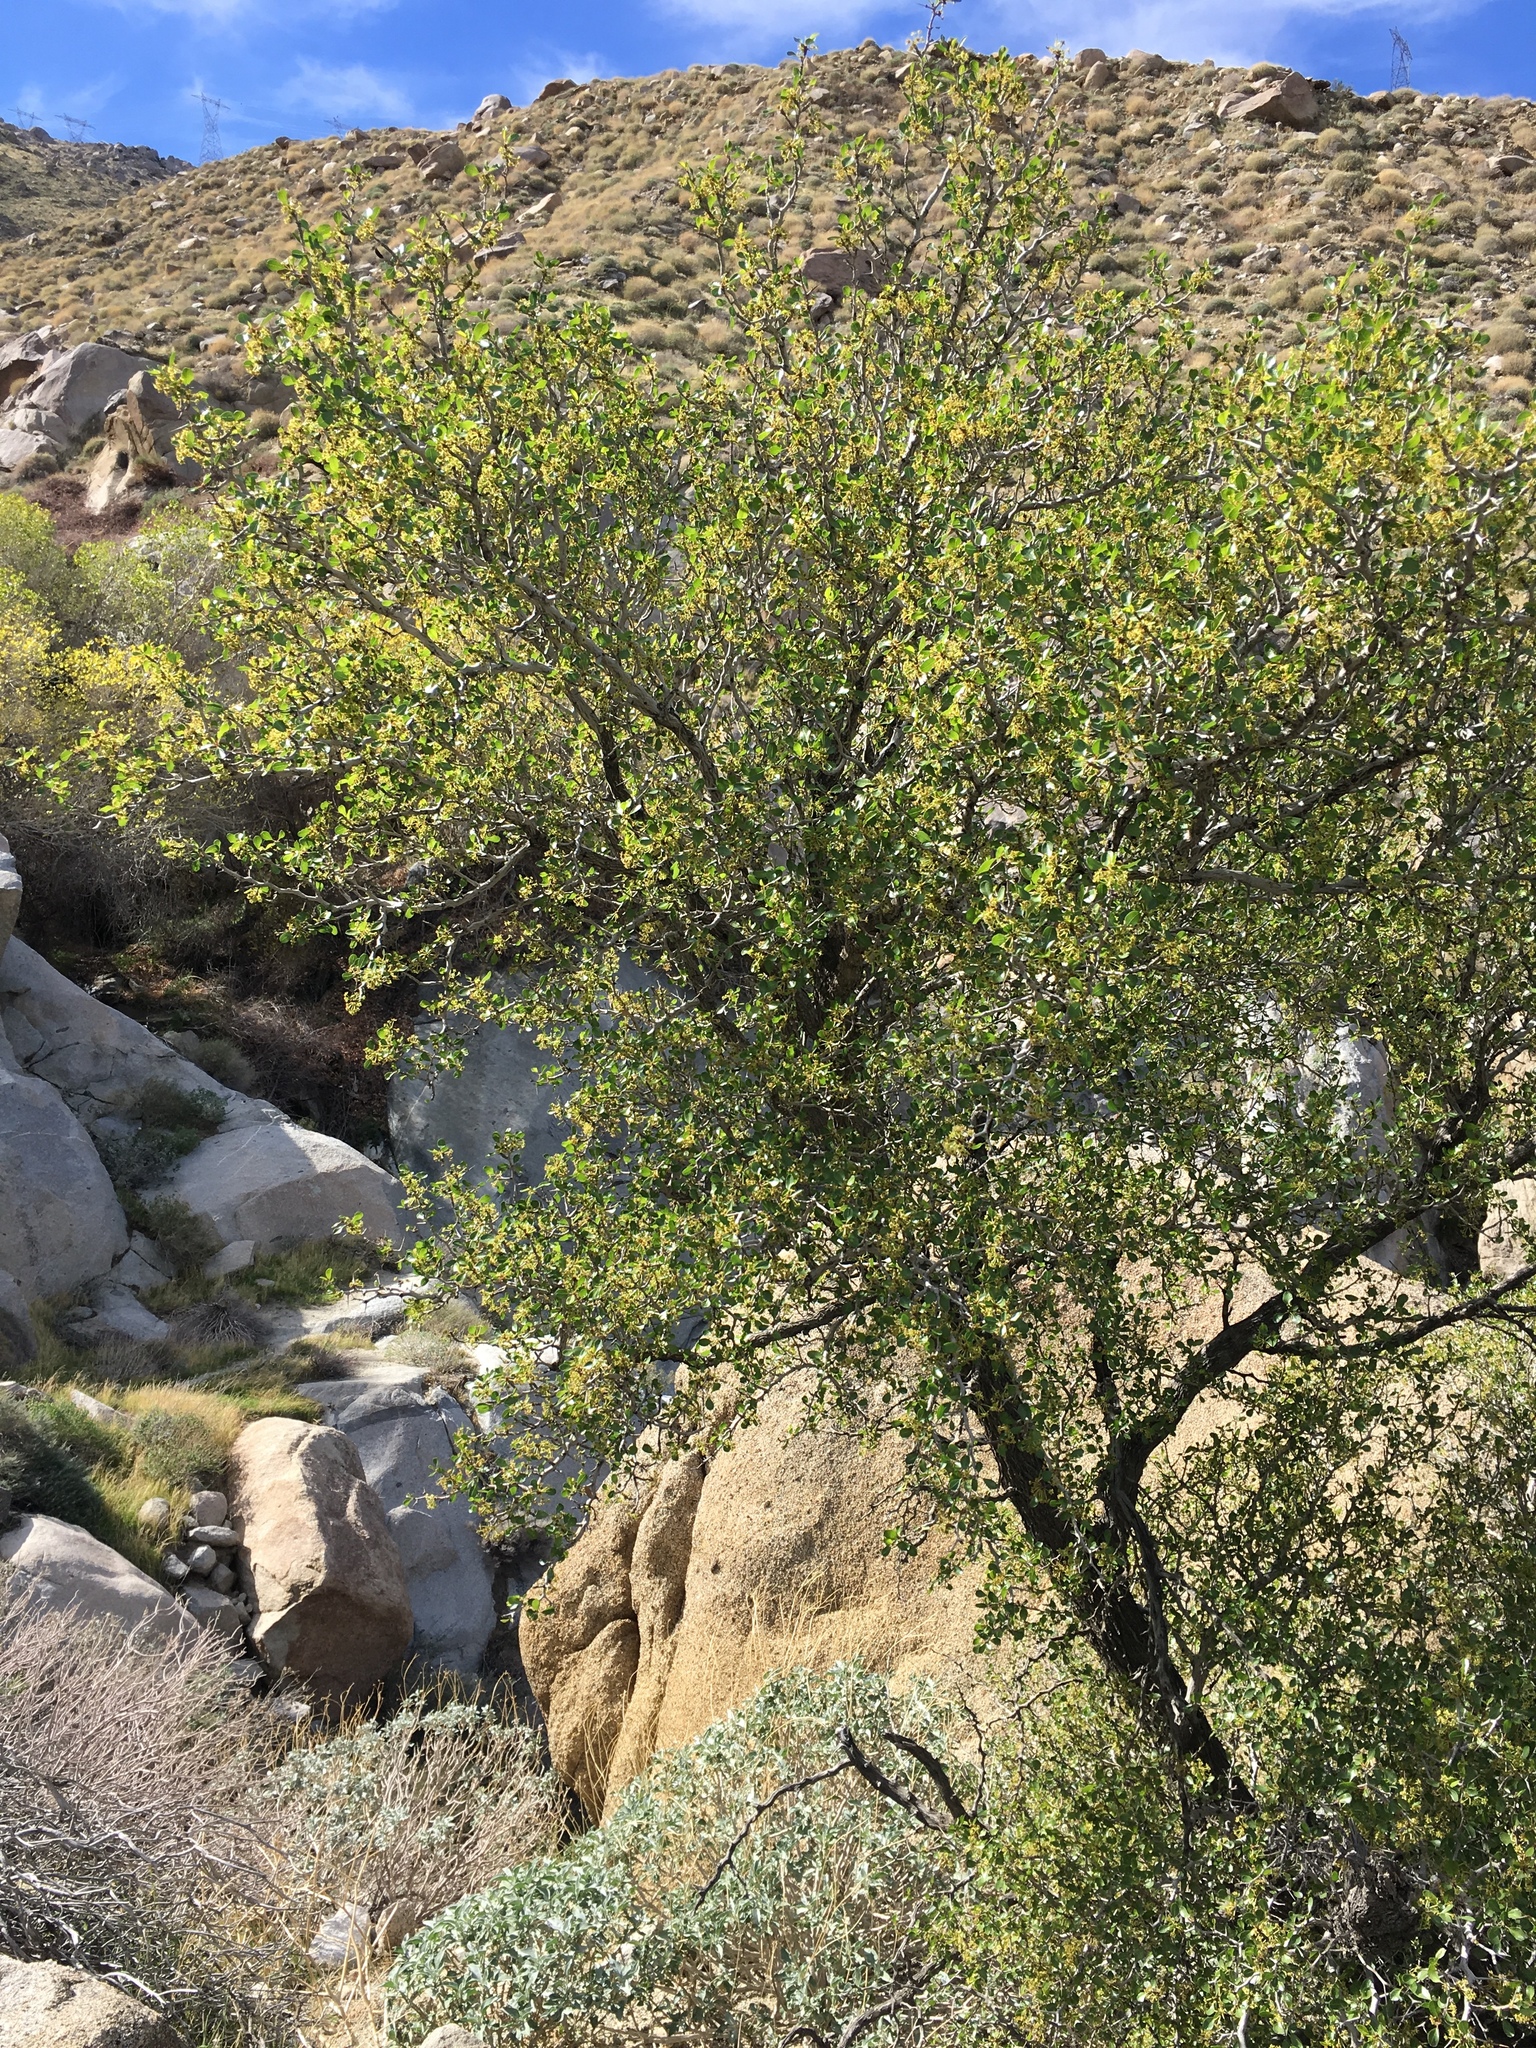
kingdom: Plantae
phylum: Tracheophyta
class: Magnoliopsida
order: Rosales
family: Rhamnaceae
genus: Pseudoziziphus
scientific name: Pseudoziziphus parryi
